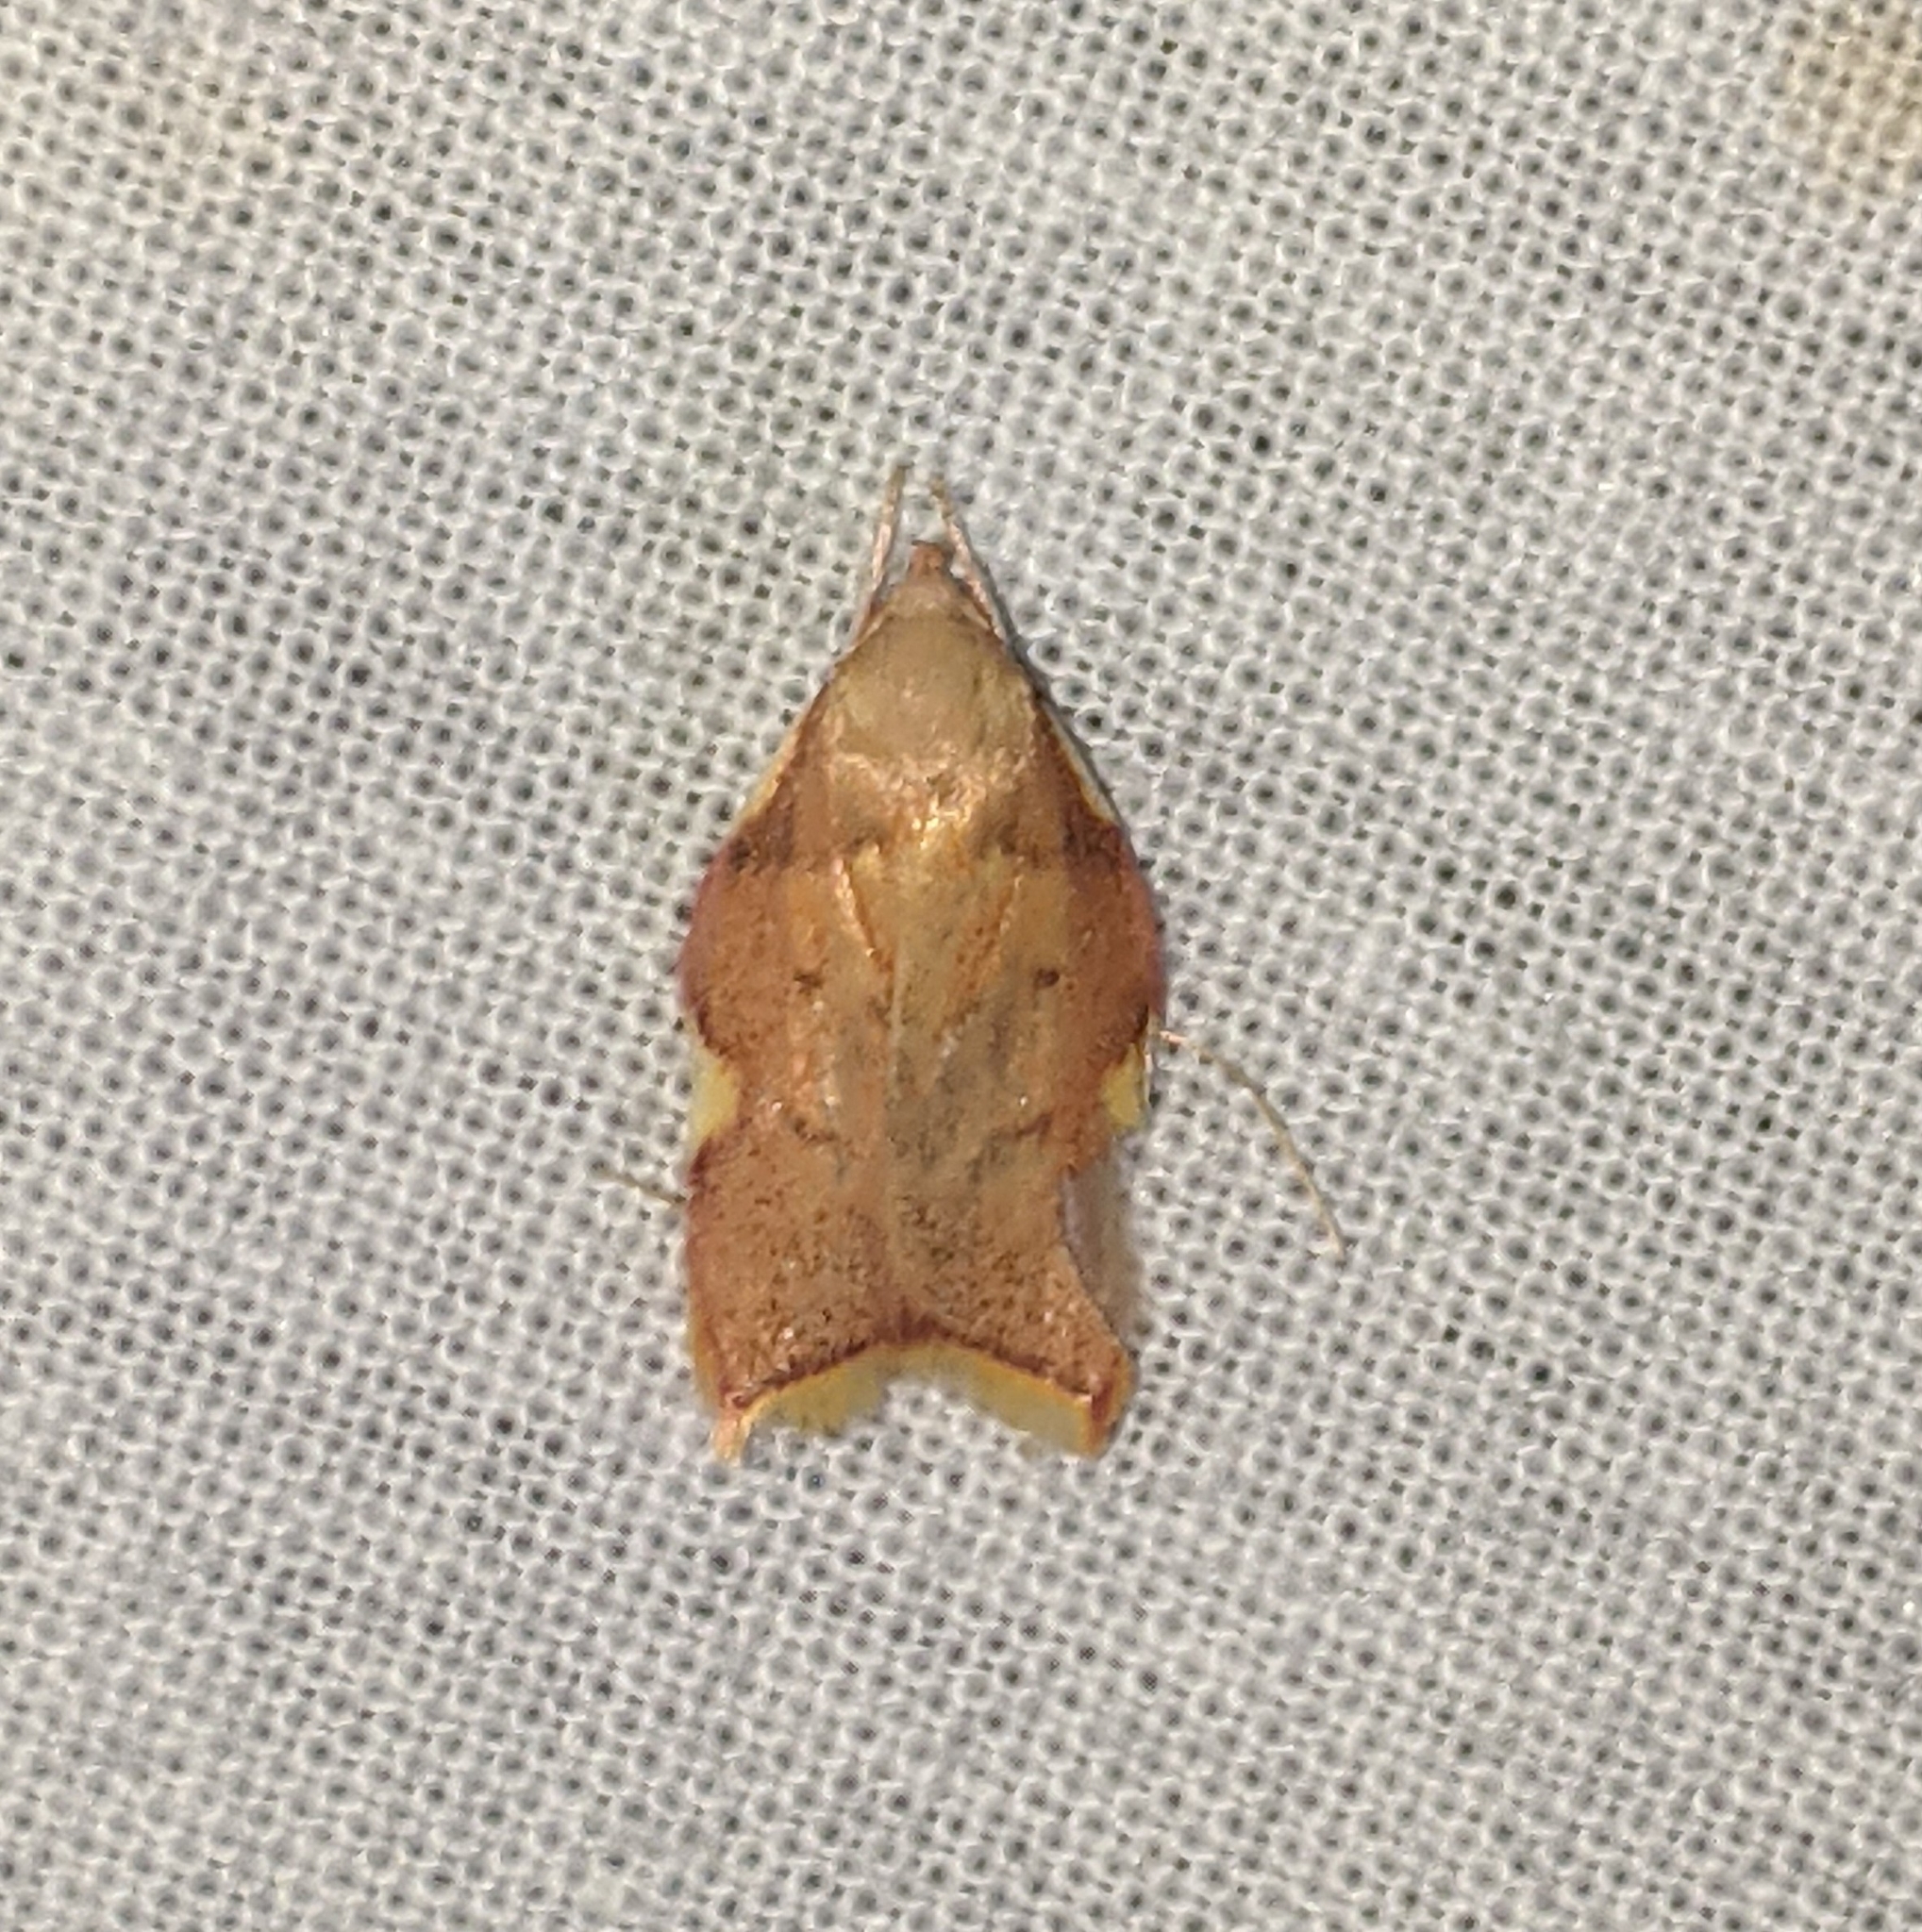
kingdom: Animalia
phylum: Arthropoda
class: Insecta
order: Lepidoptera
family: Peleopodidae
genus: Carcina
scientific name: Carcina quercana
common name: Moth
